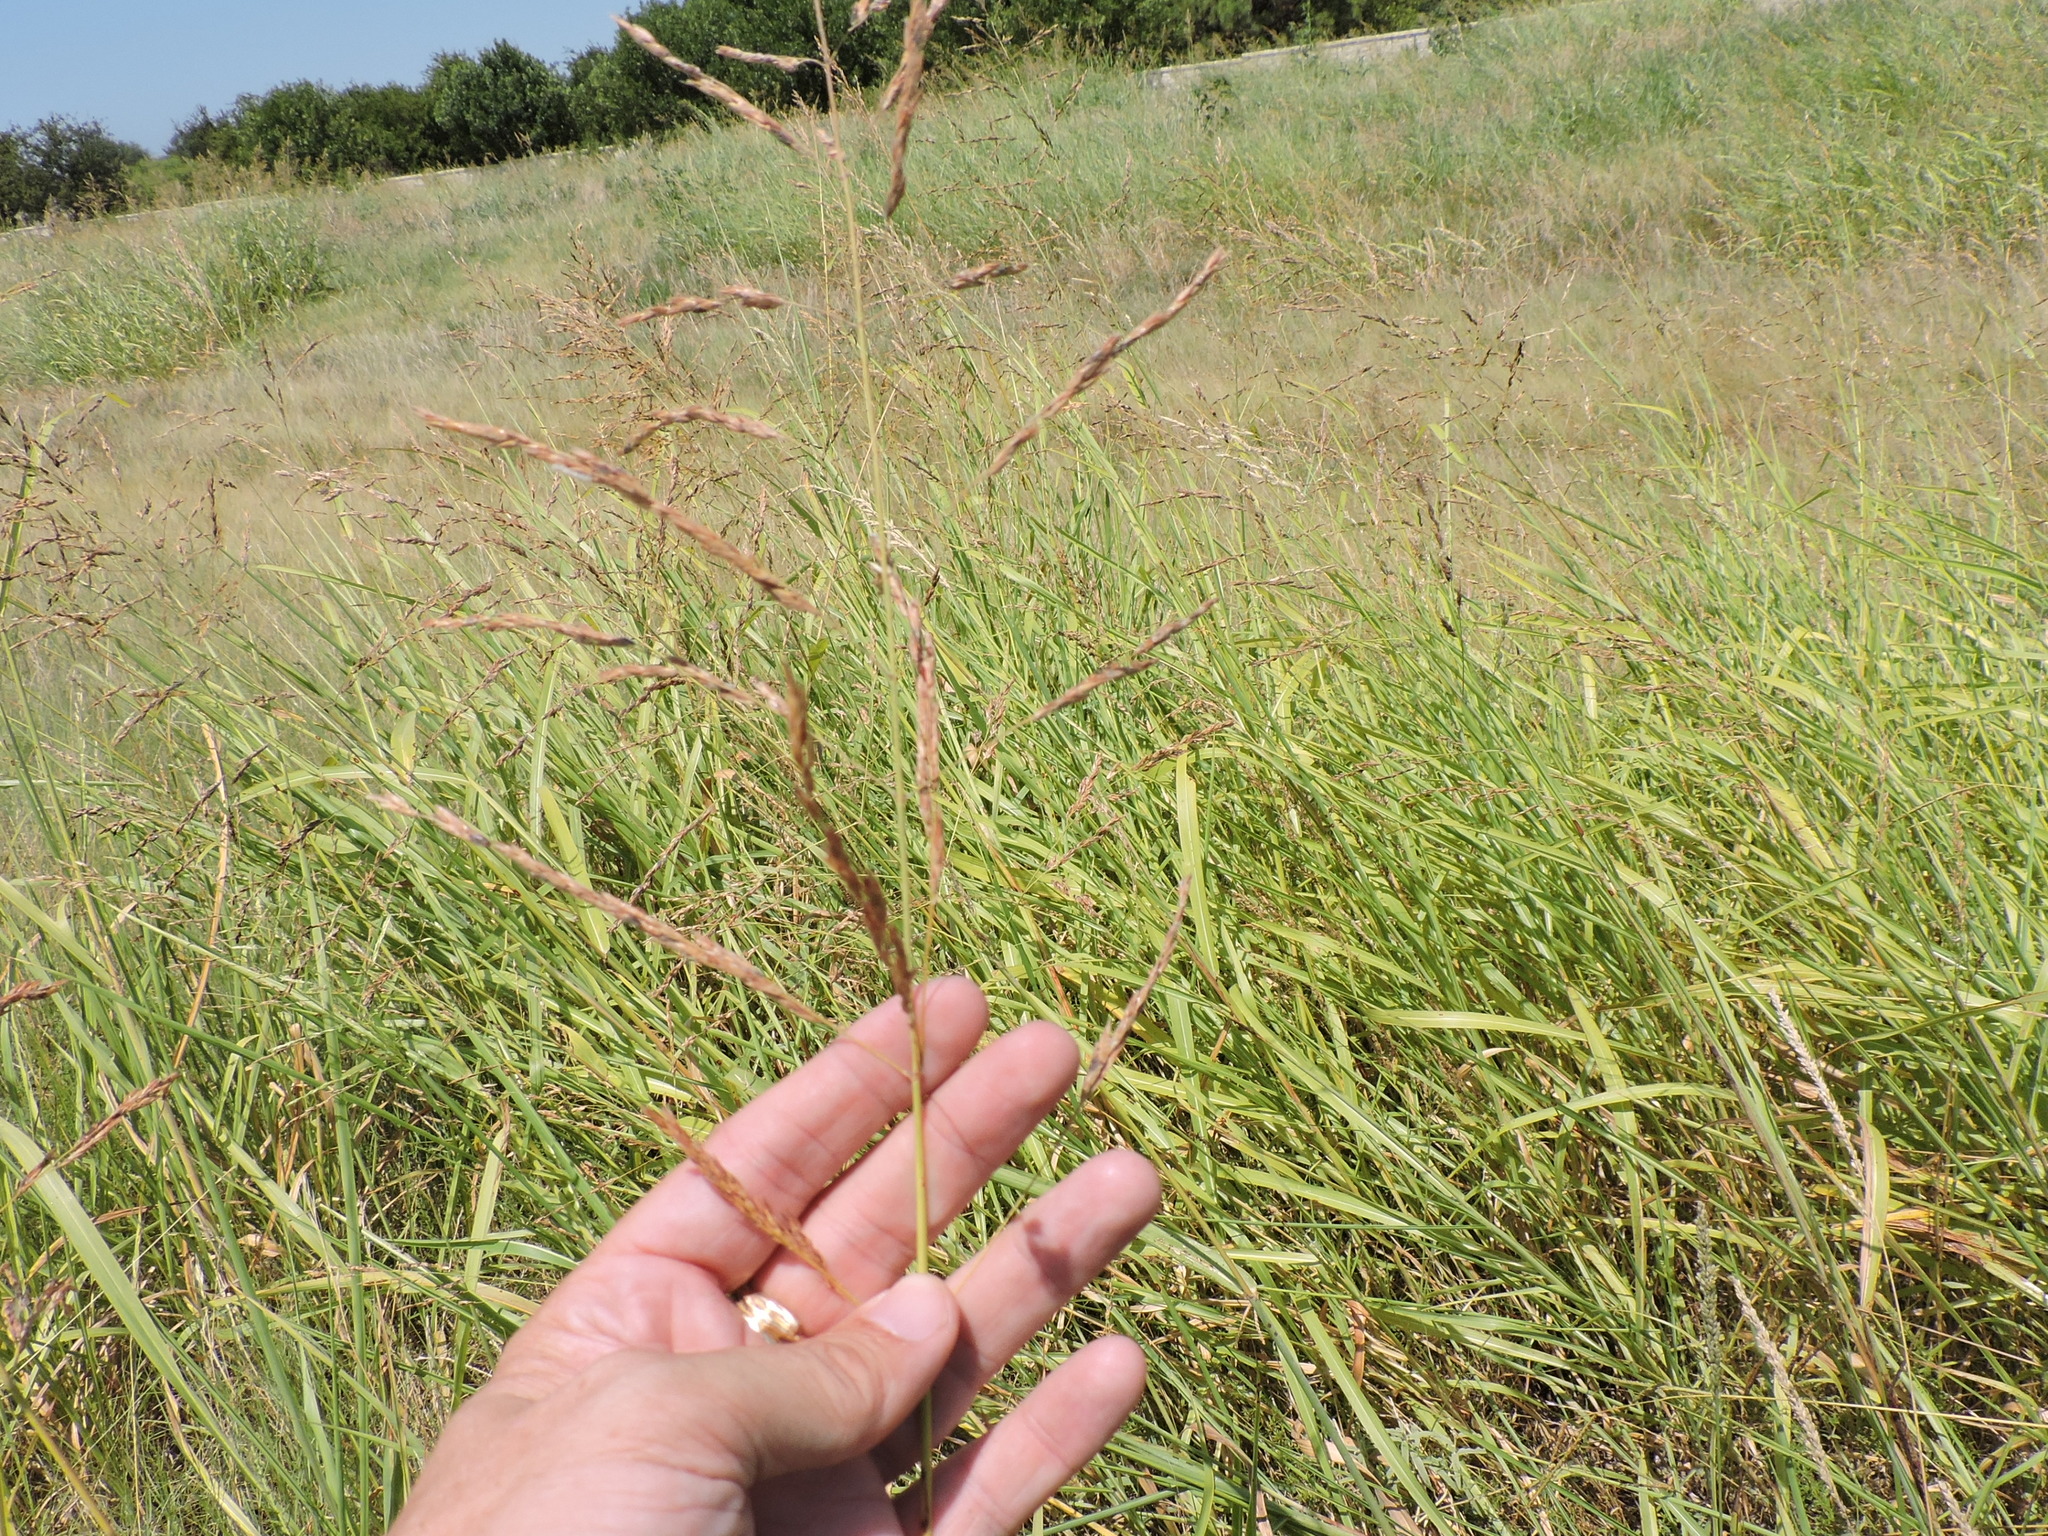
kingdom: Plantae
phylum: Tracheophyta
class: Liliopsida
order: Poales
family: Poaceae
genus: Sorghum
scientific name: Sorghum halepense
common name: Johnson-grass
